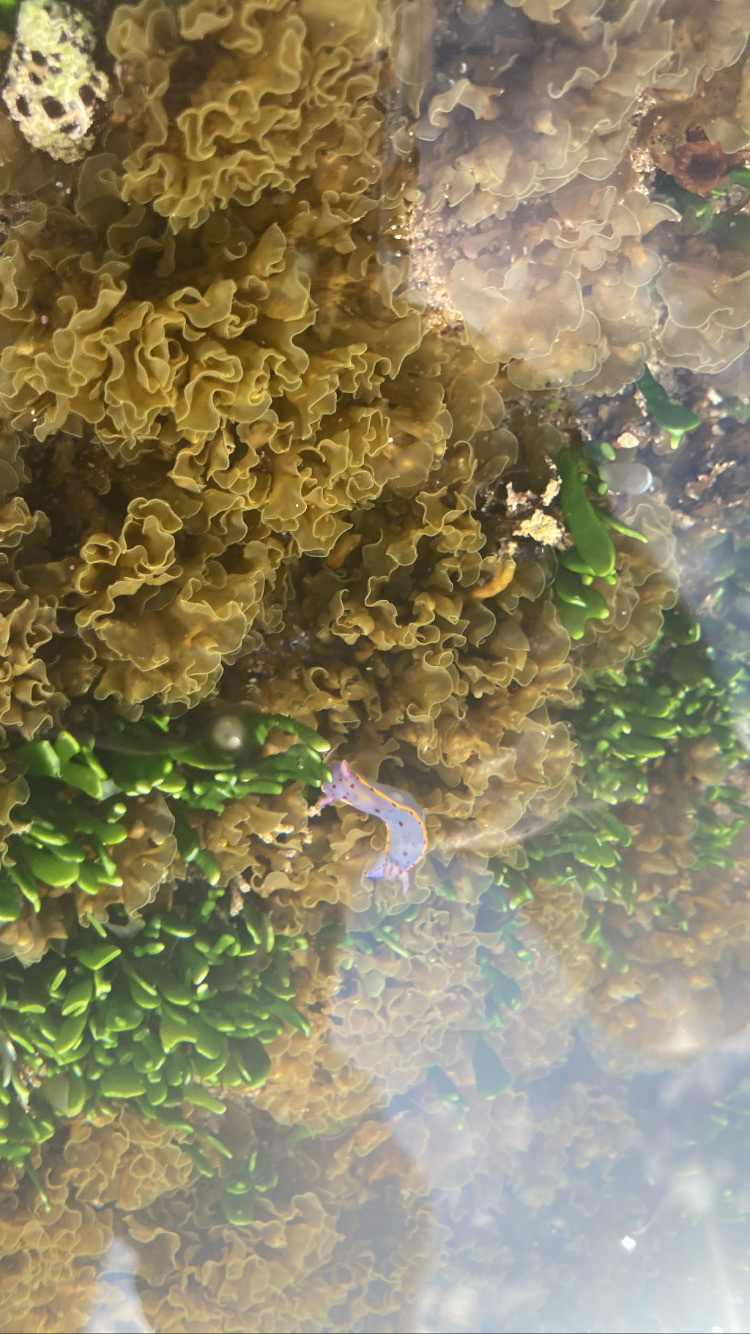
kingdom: Animalia
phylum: Mollusca
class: Gastropoda
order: Nudibranchia
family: Chromodorididae
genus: Hypselodoris
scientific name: Hypselodoris bennetti
